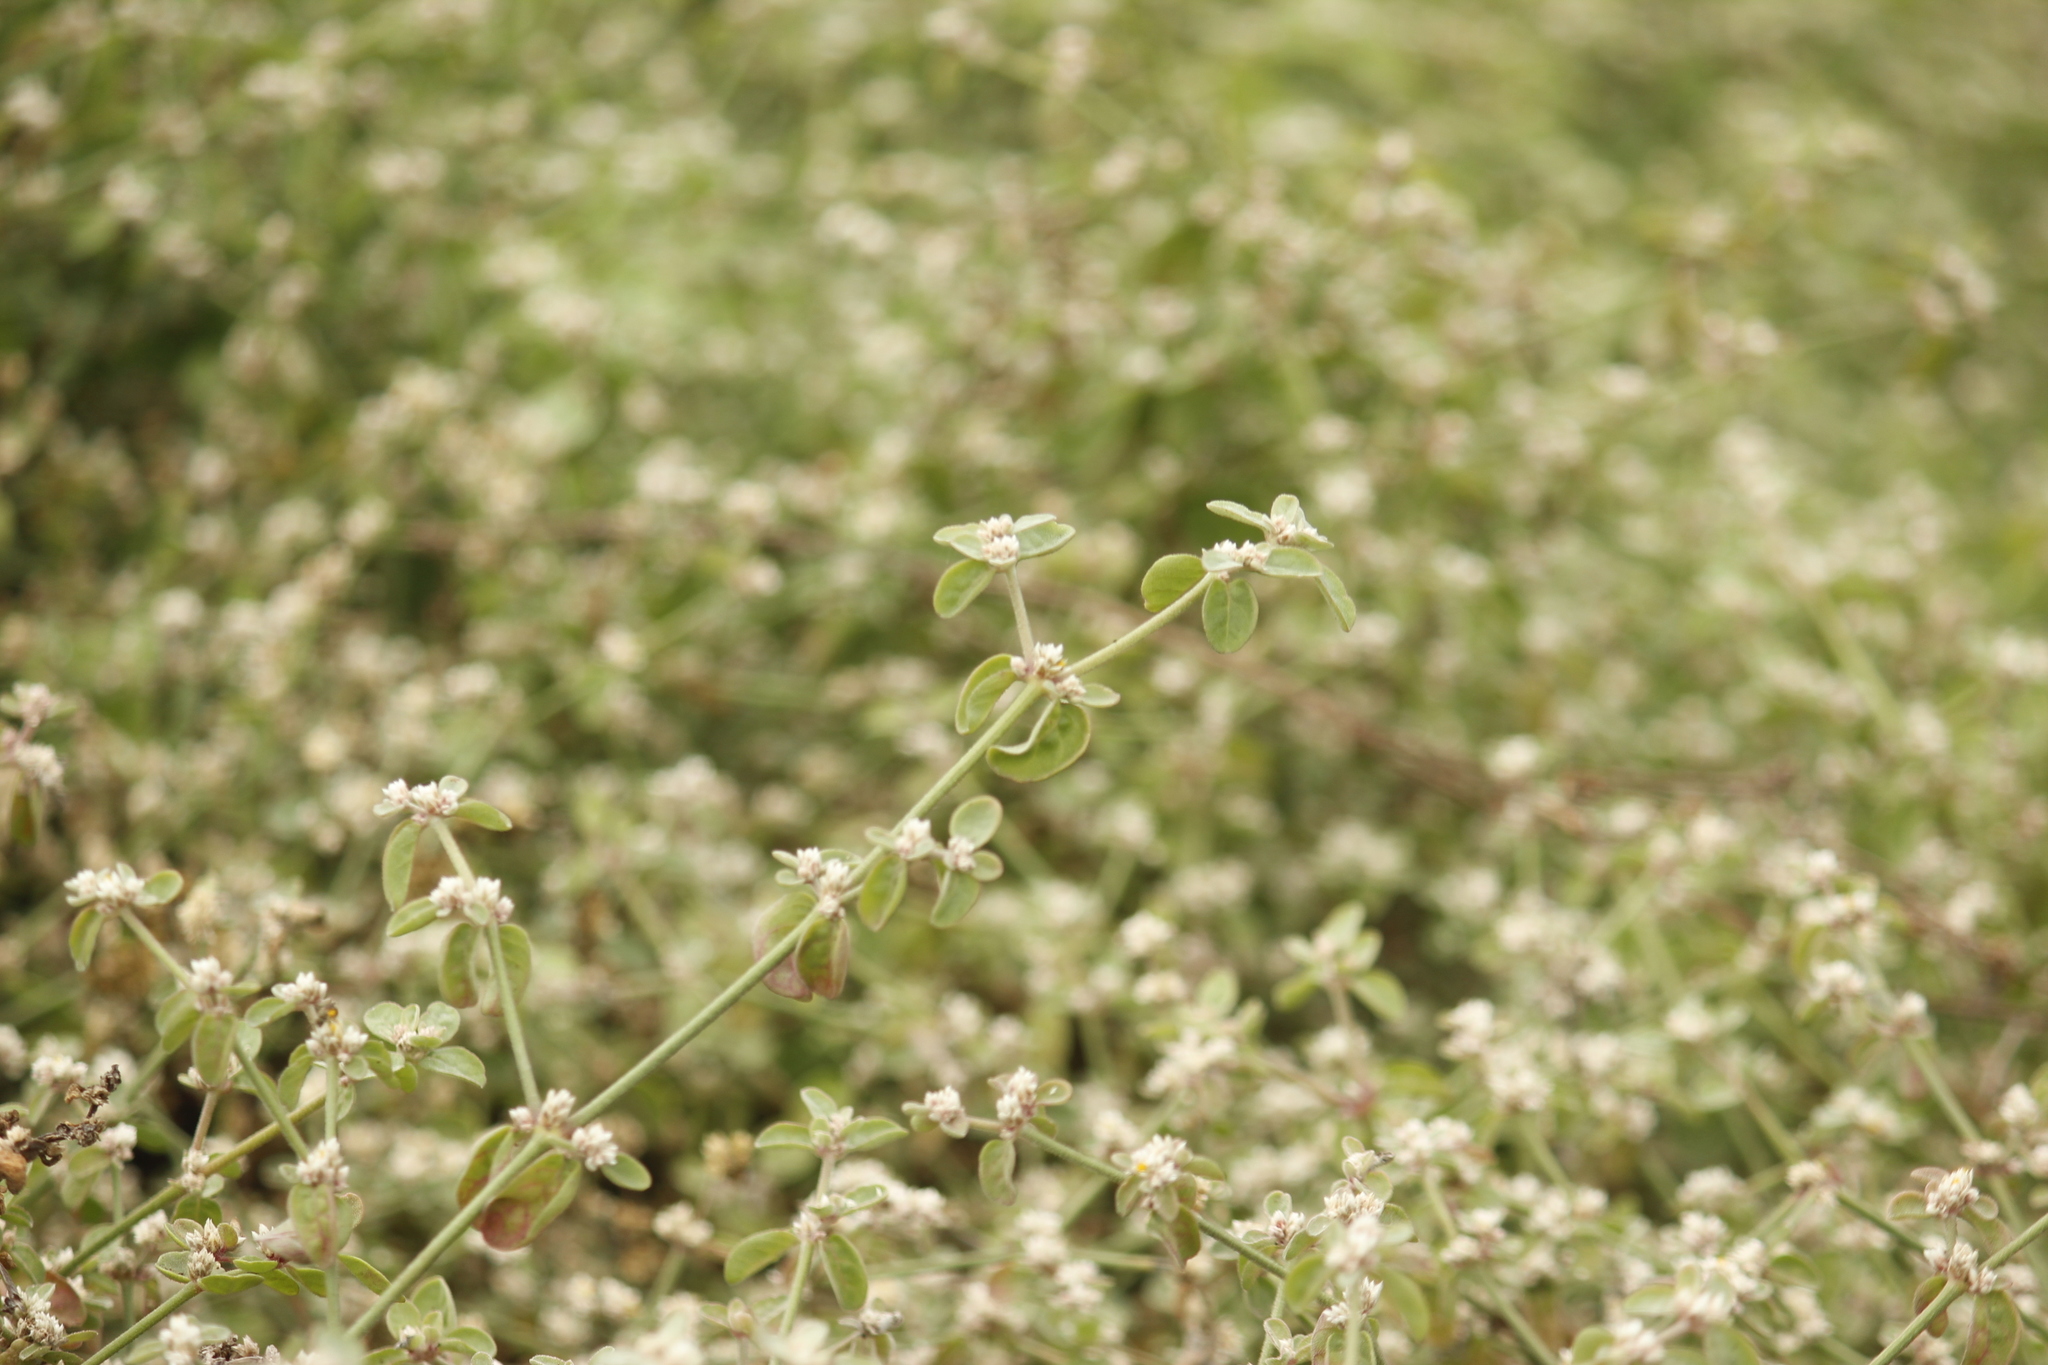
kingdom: Plantae
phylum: Tracheophyta
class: Magnoliopsida
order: Caryophyllales
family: Amaranthaceae
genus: Alternanthera
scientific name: Alternanthera halimifolia
